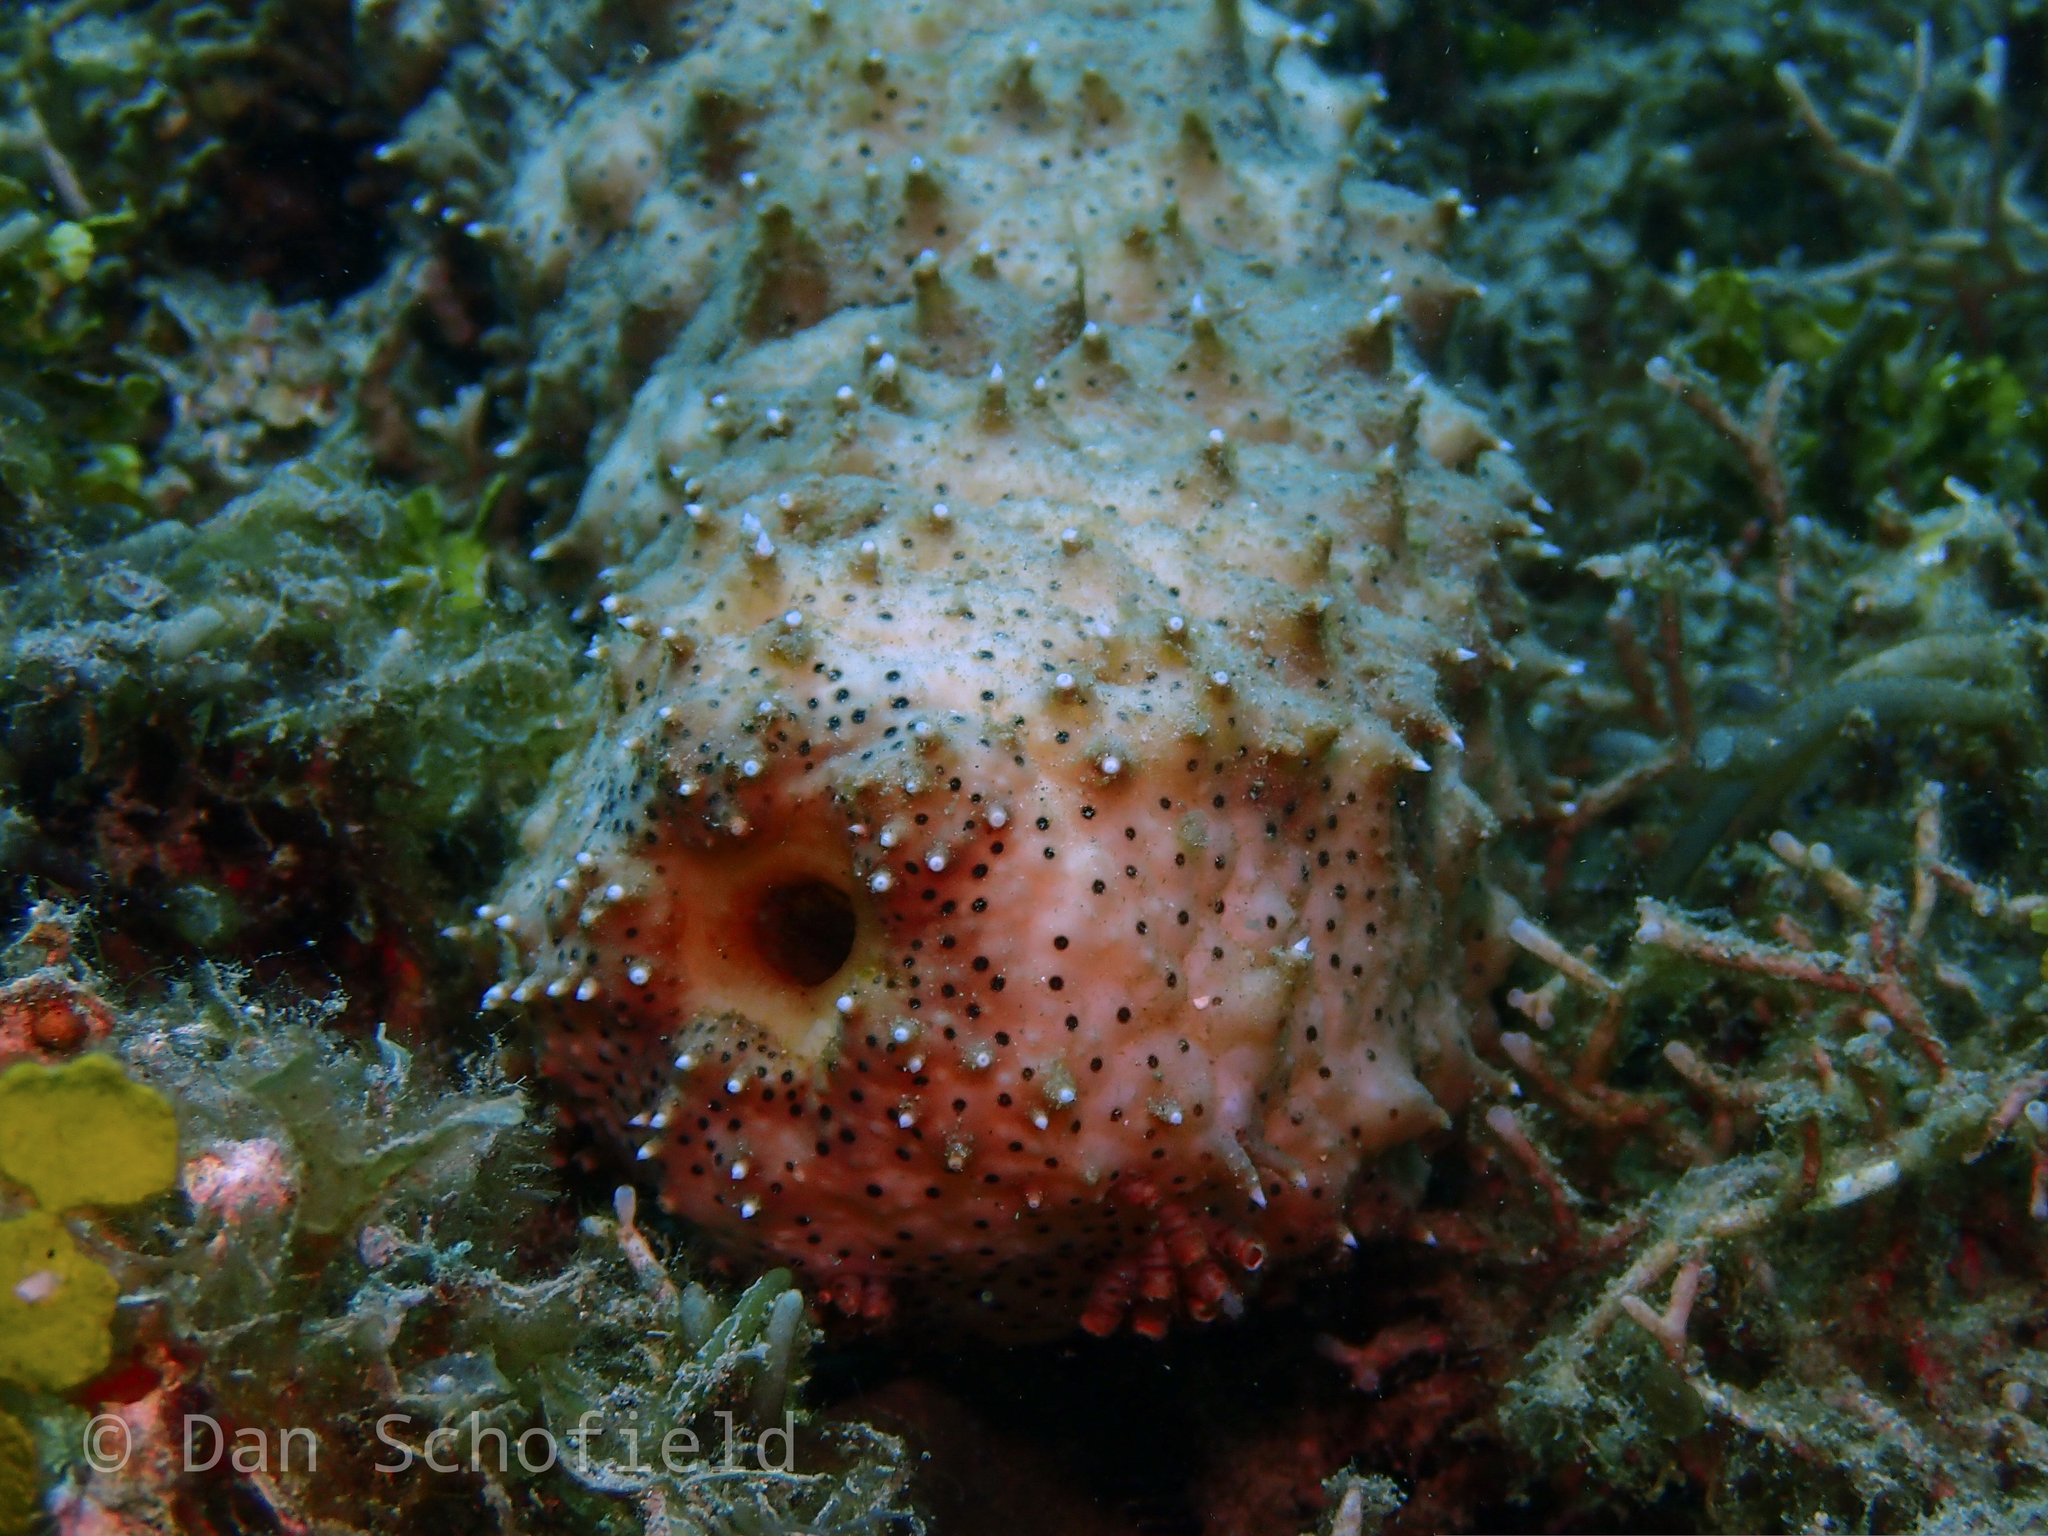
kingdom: Animalia
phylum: Echinodermata
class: Holothuroidea
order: Holothuriida
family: Holothuriidae
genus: Pearsonothuria
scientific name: Pearsonothuria graeffei
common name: Blackspotted sea cucumber
